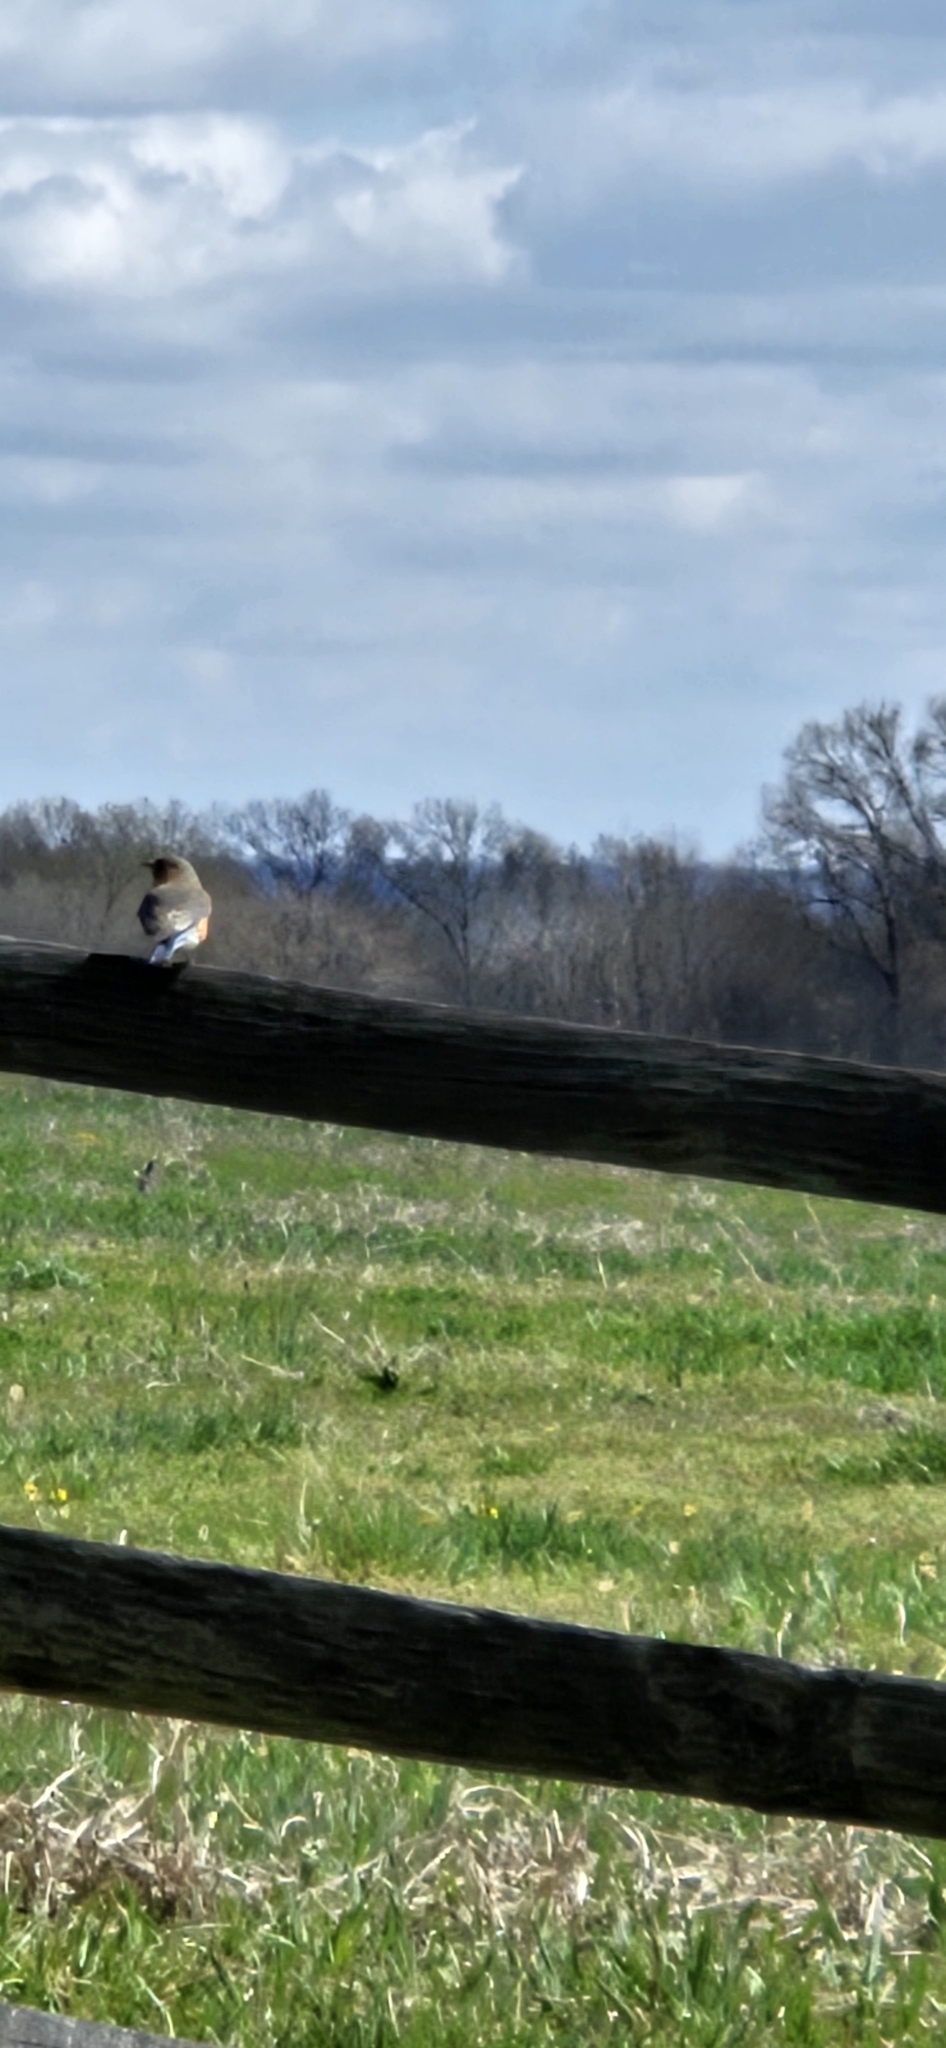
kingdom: Animalia
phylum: Chordata
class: Aves
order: Passeriformes
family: Turdidae
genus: Sialia
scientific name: Sialia sialis
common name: Eastern bluebird
